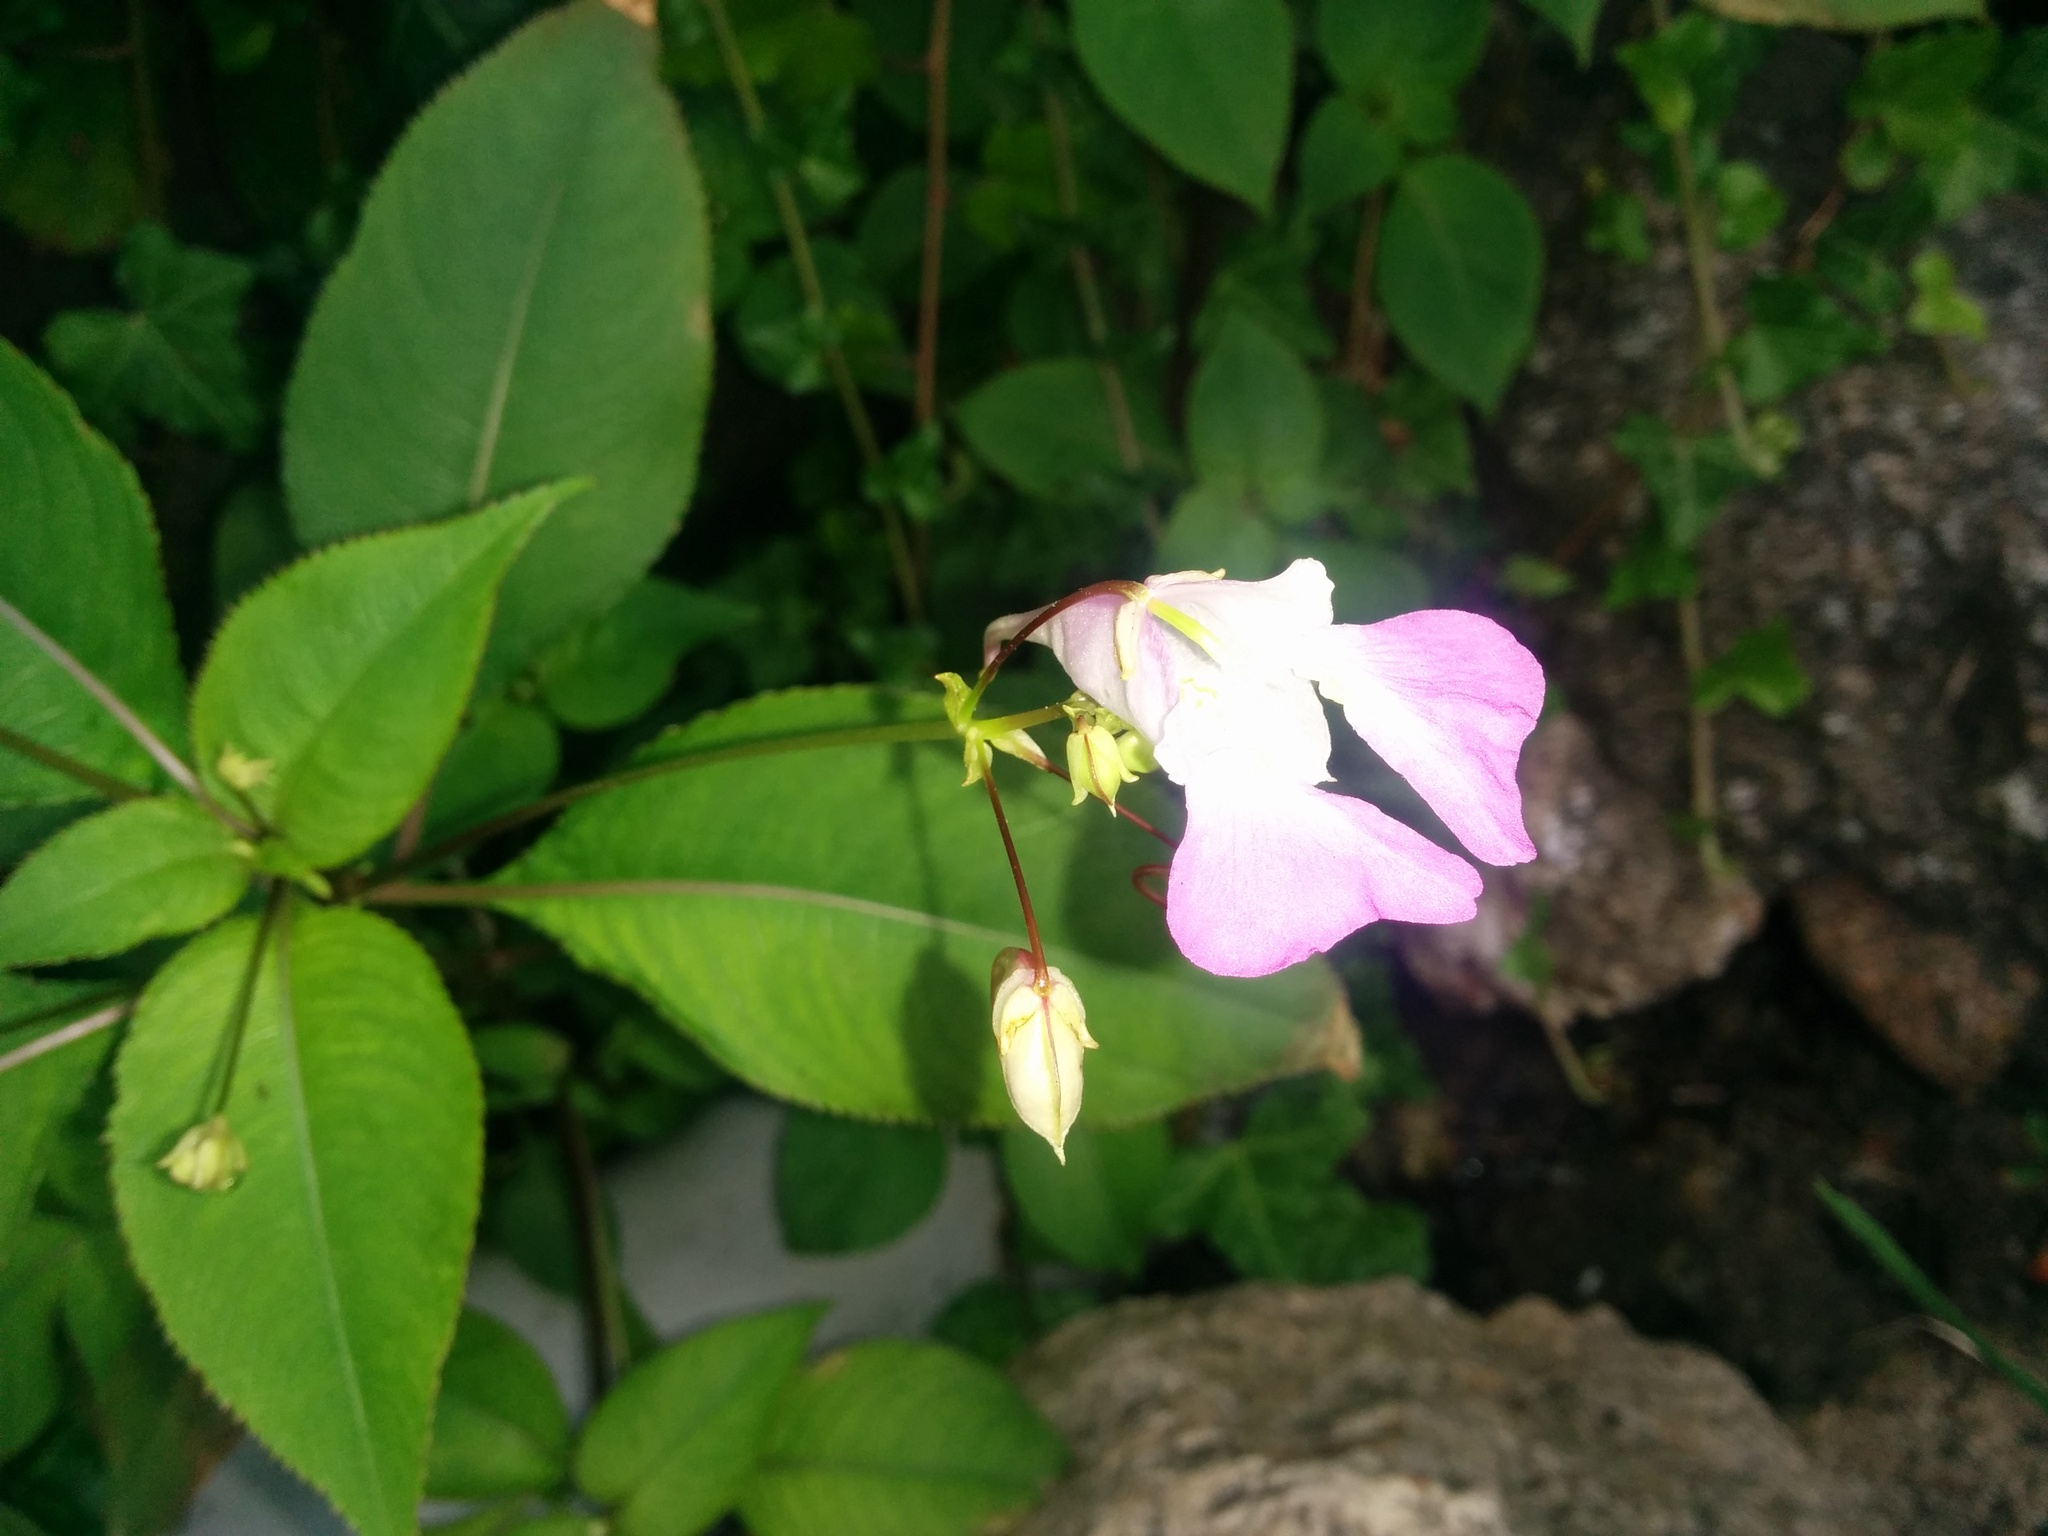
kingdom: Plantae
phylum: Tracheophyta
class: Magnoliopsida
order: Ericales
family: Balsaminaceae
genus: Impatiens
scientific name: Impatiens balfourii
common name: Balfour's touch-me-not
